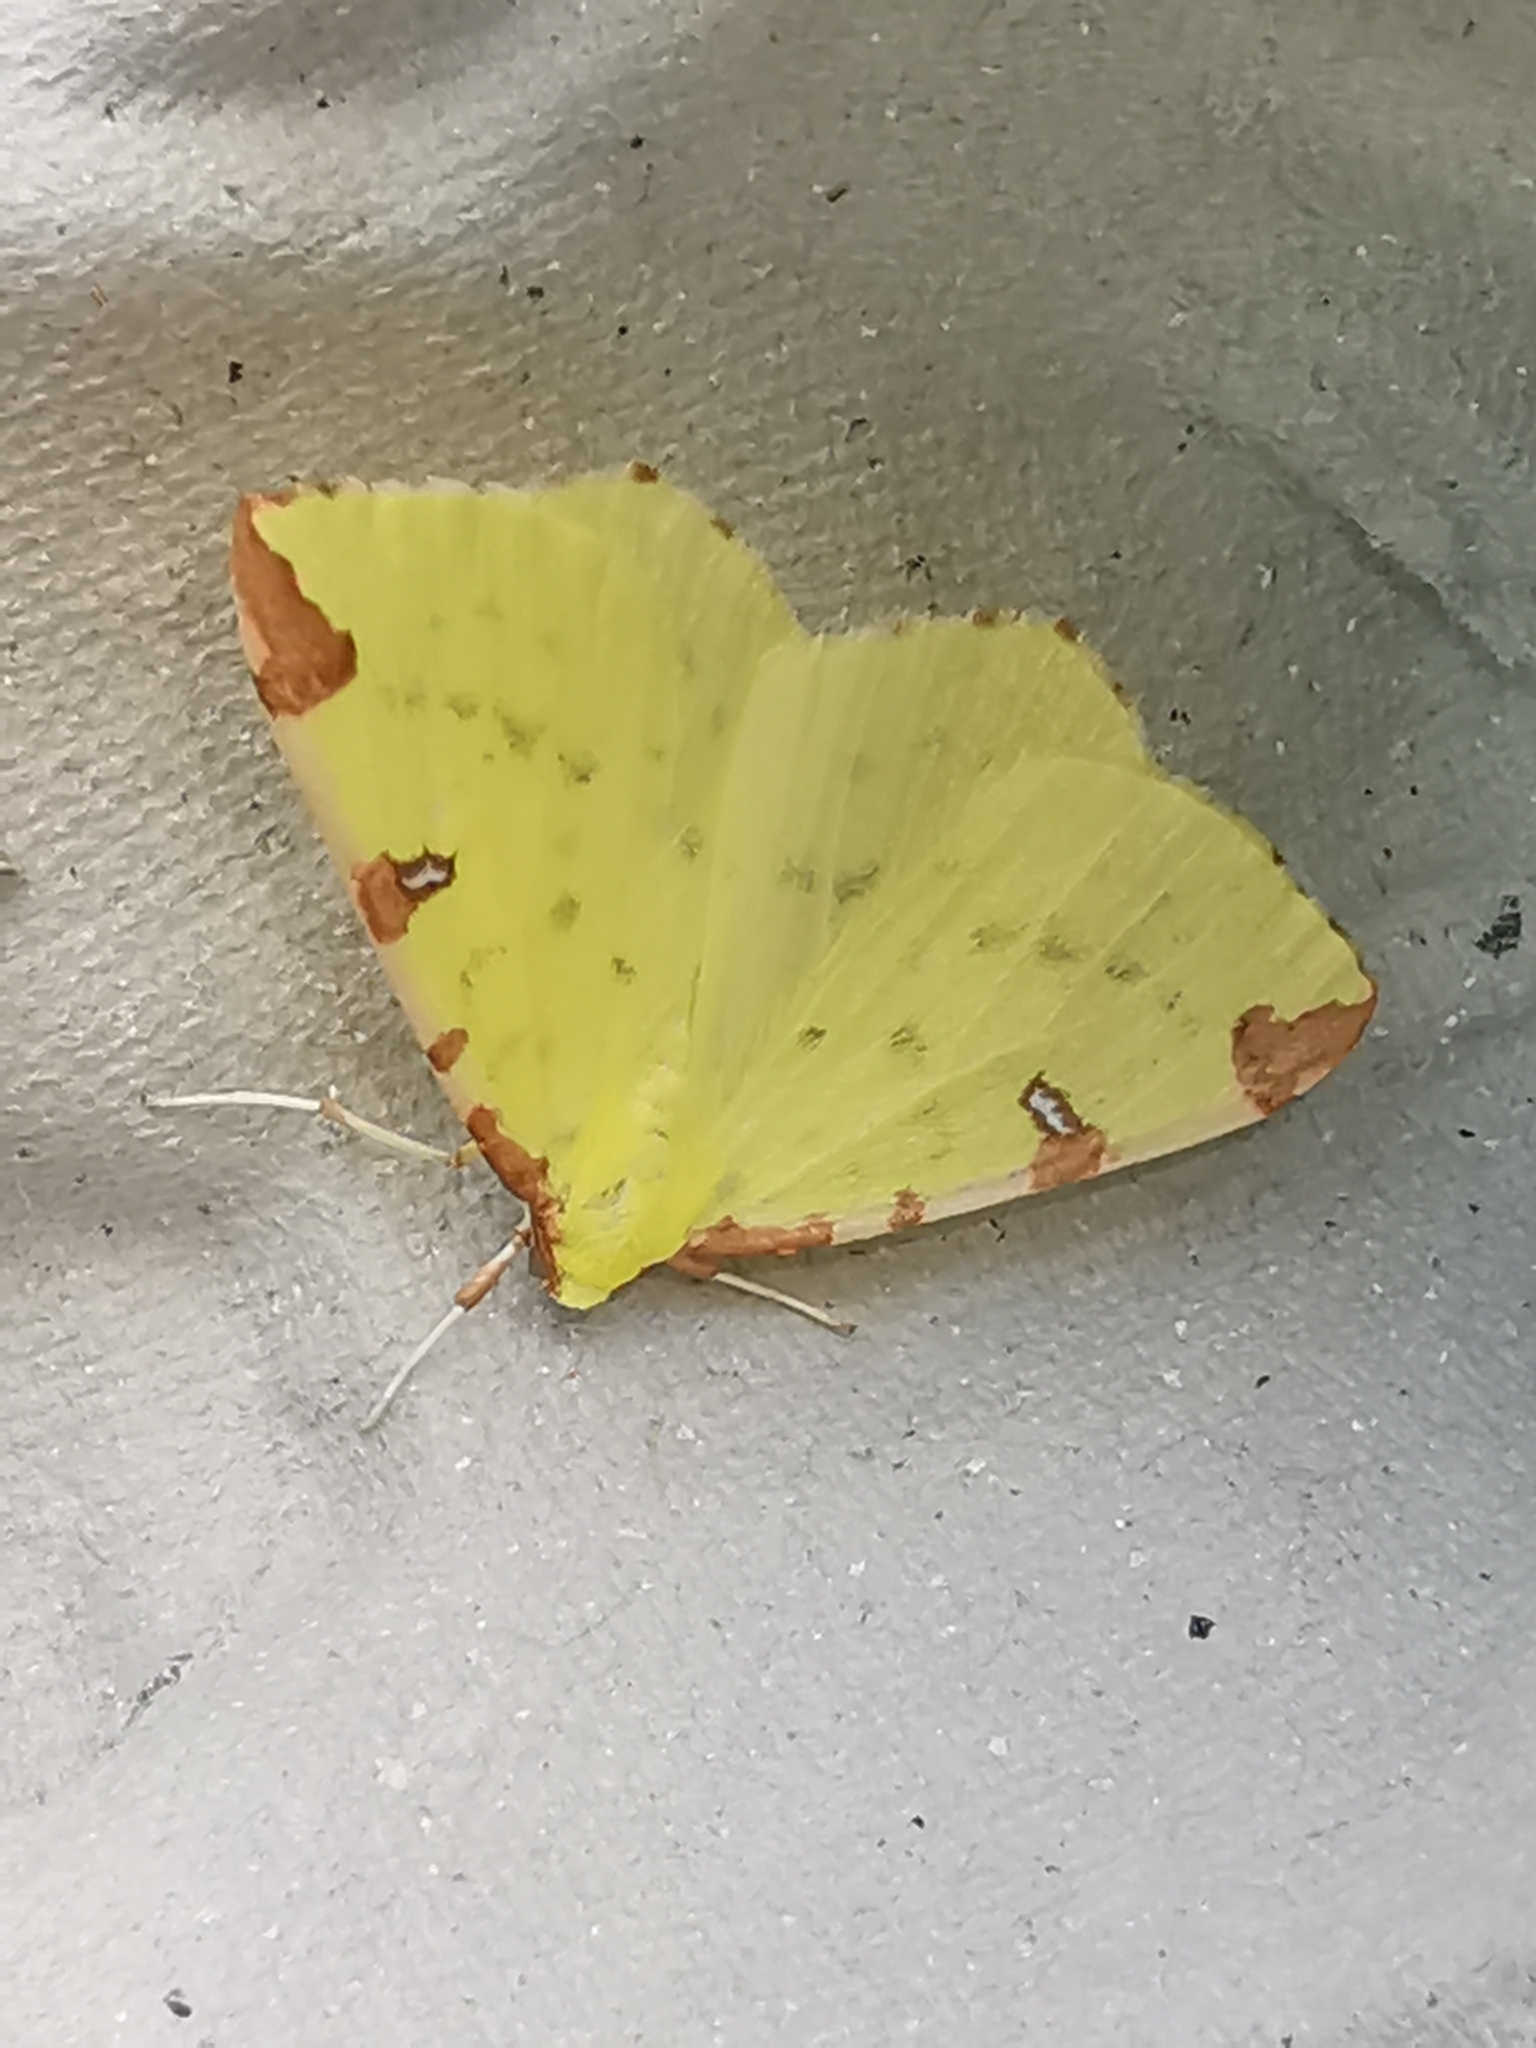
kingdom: Animalia
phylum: Arthropoda
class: Insecta
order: Lepidoptera
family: Geometridae
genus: Opisthograptis
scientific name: Opisthograptis luteolata
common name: Brimstone moth
